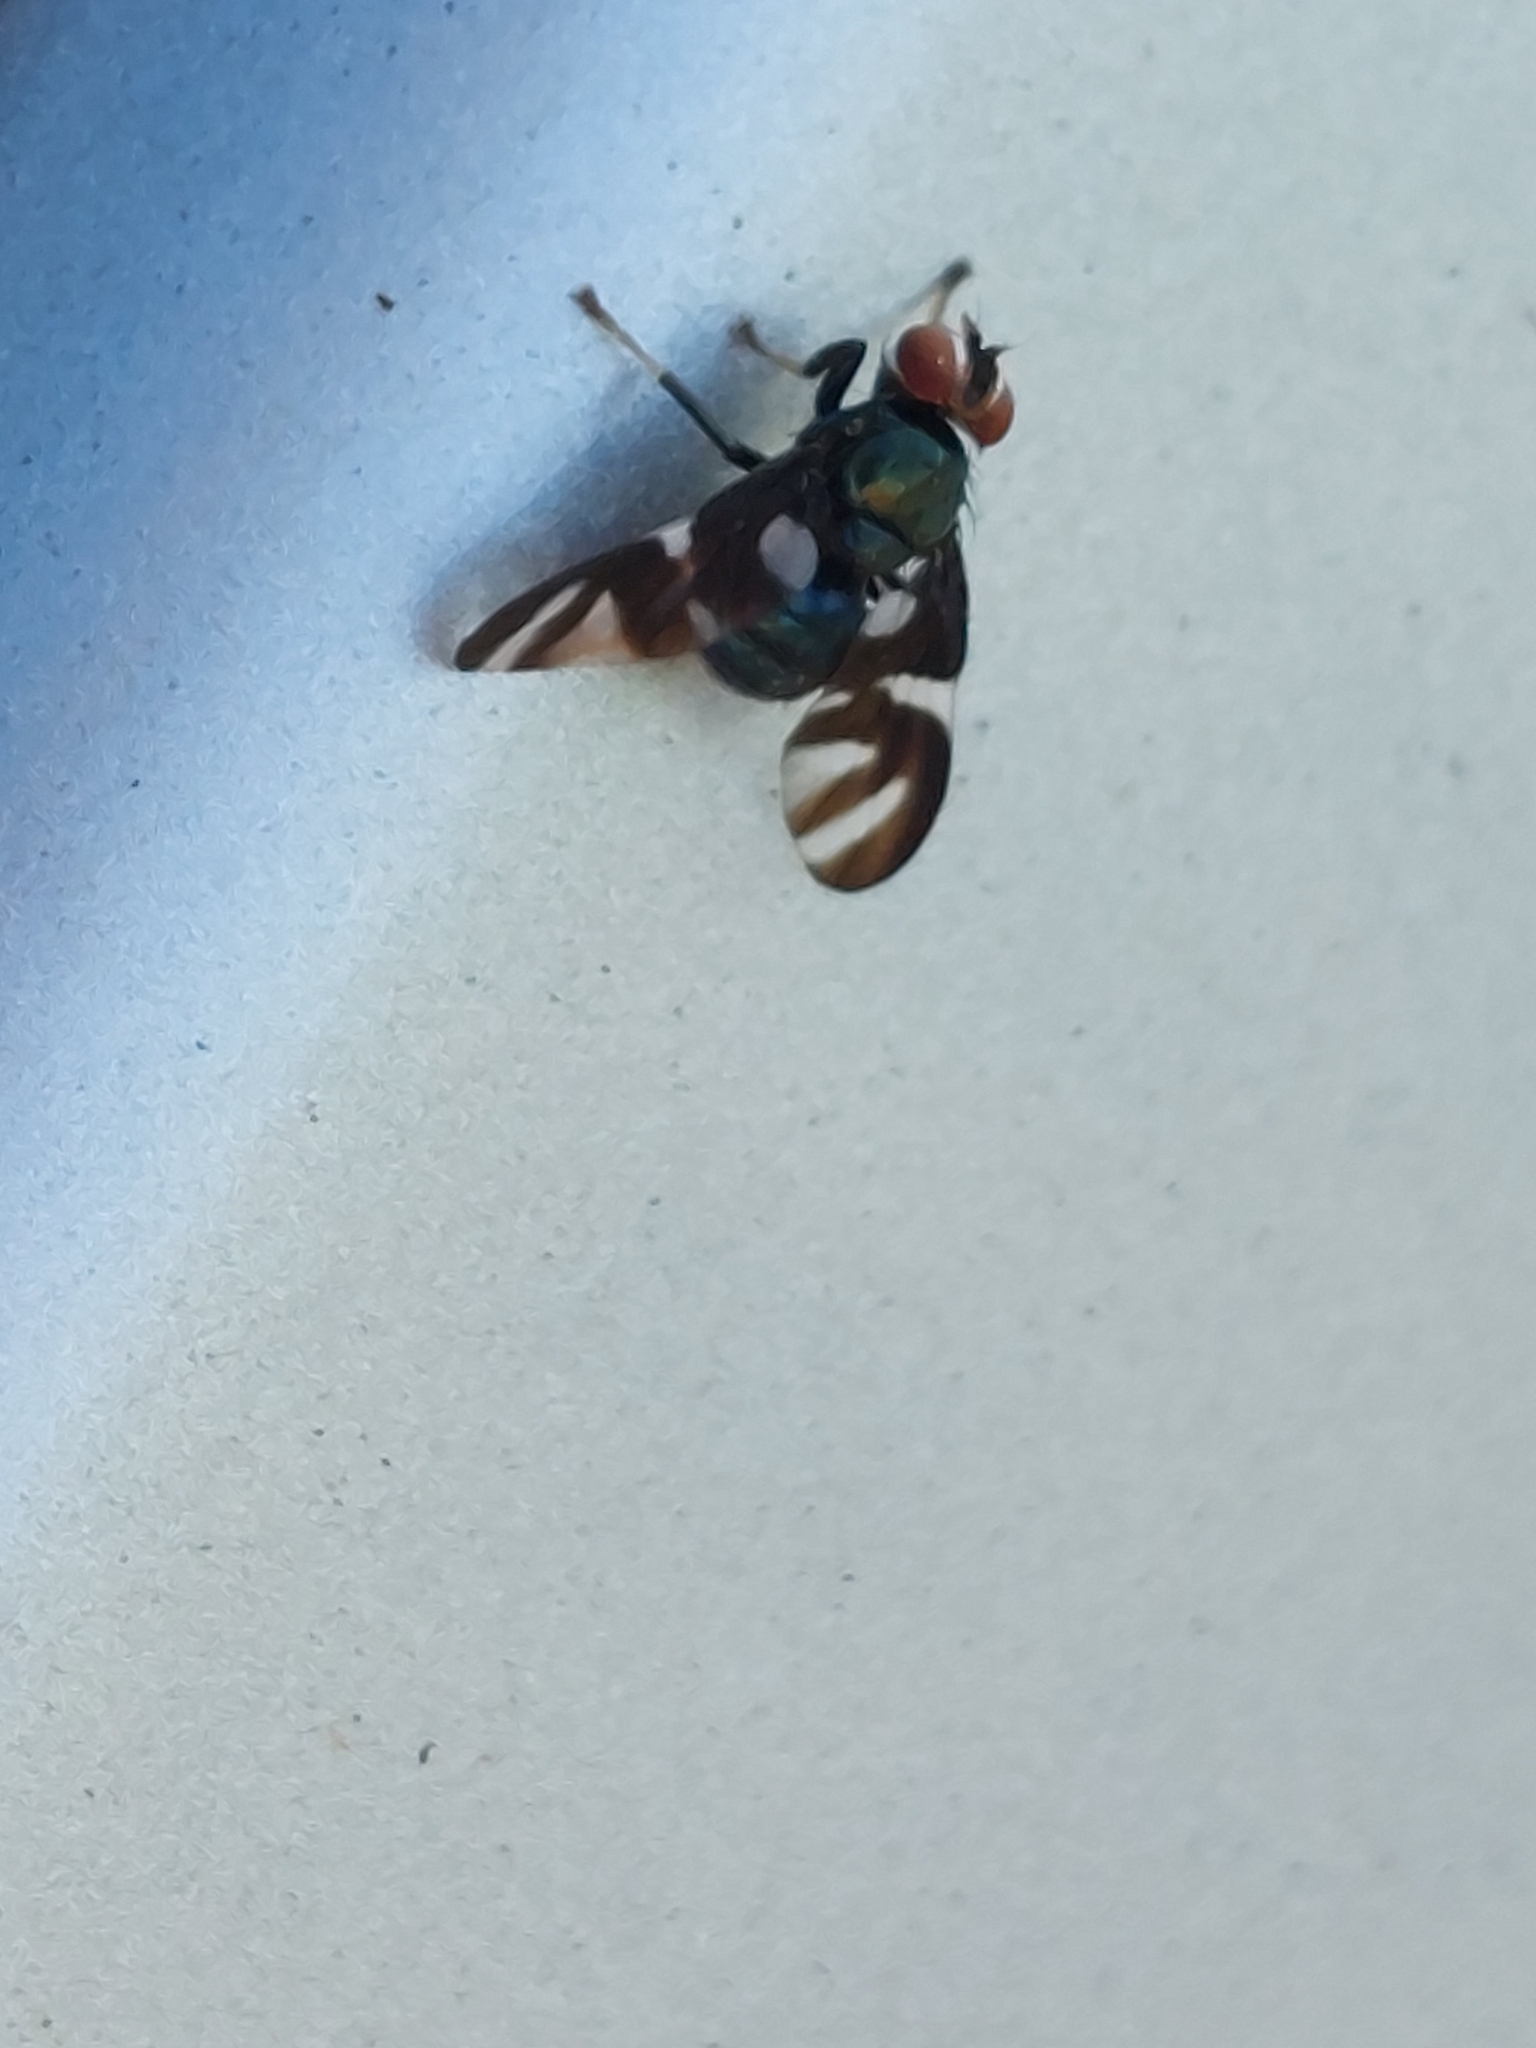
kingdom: Animalia
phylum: Arthropoda
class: Insecta
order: Diptera
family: Platystomatidae
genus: Piara
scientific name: Piara cyanea
